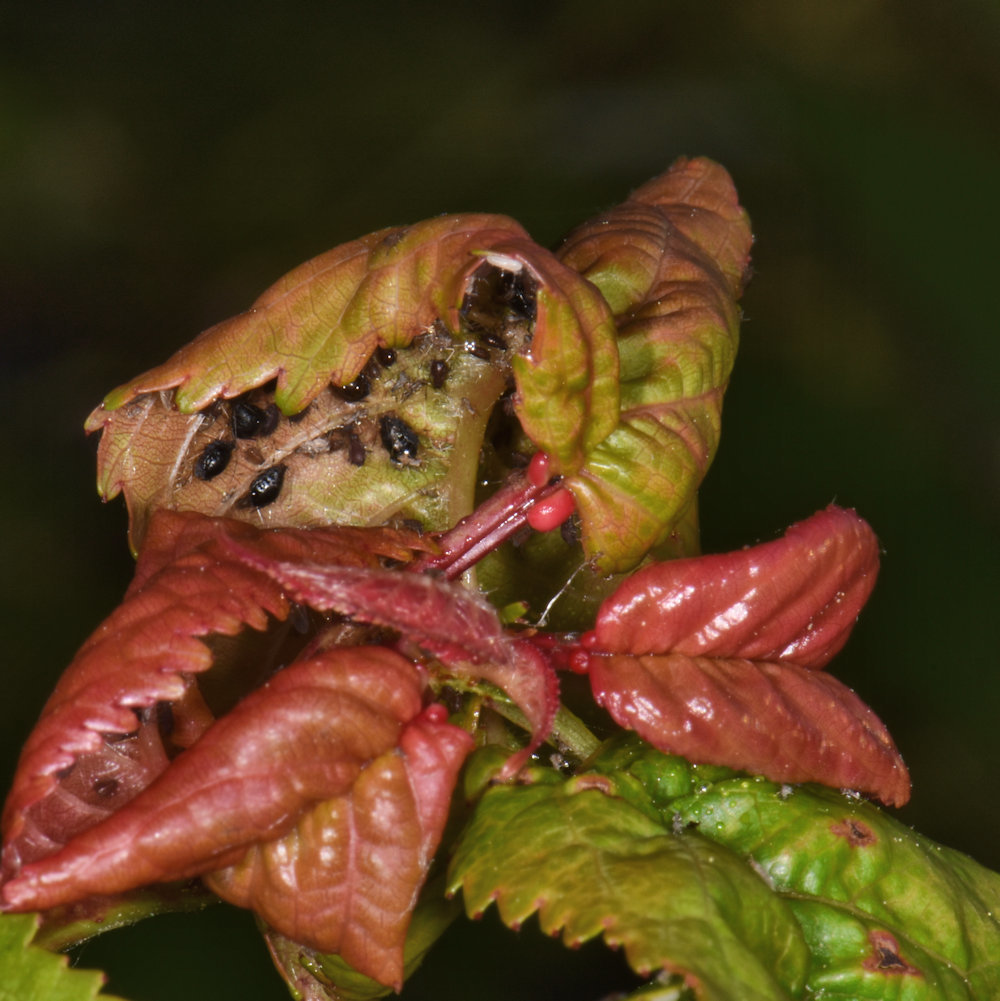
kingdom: Animalia
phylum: Arthropoda
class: Insecta
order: Hemiptera
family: Aphididae
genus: Myzus
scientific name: Myzus cerasi
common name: Black cherry aphid
